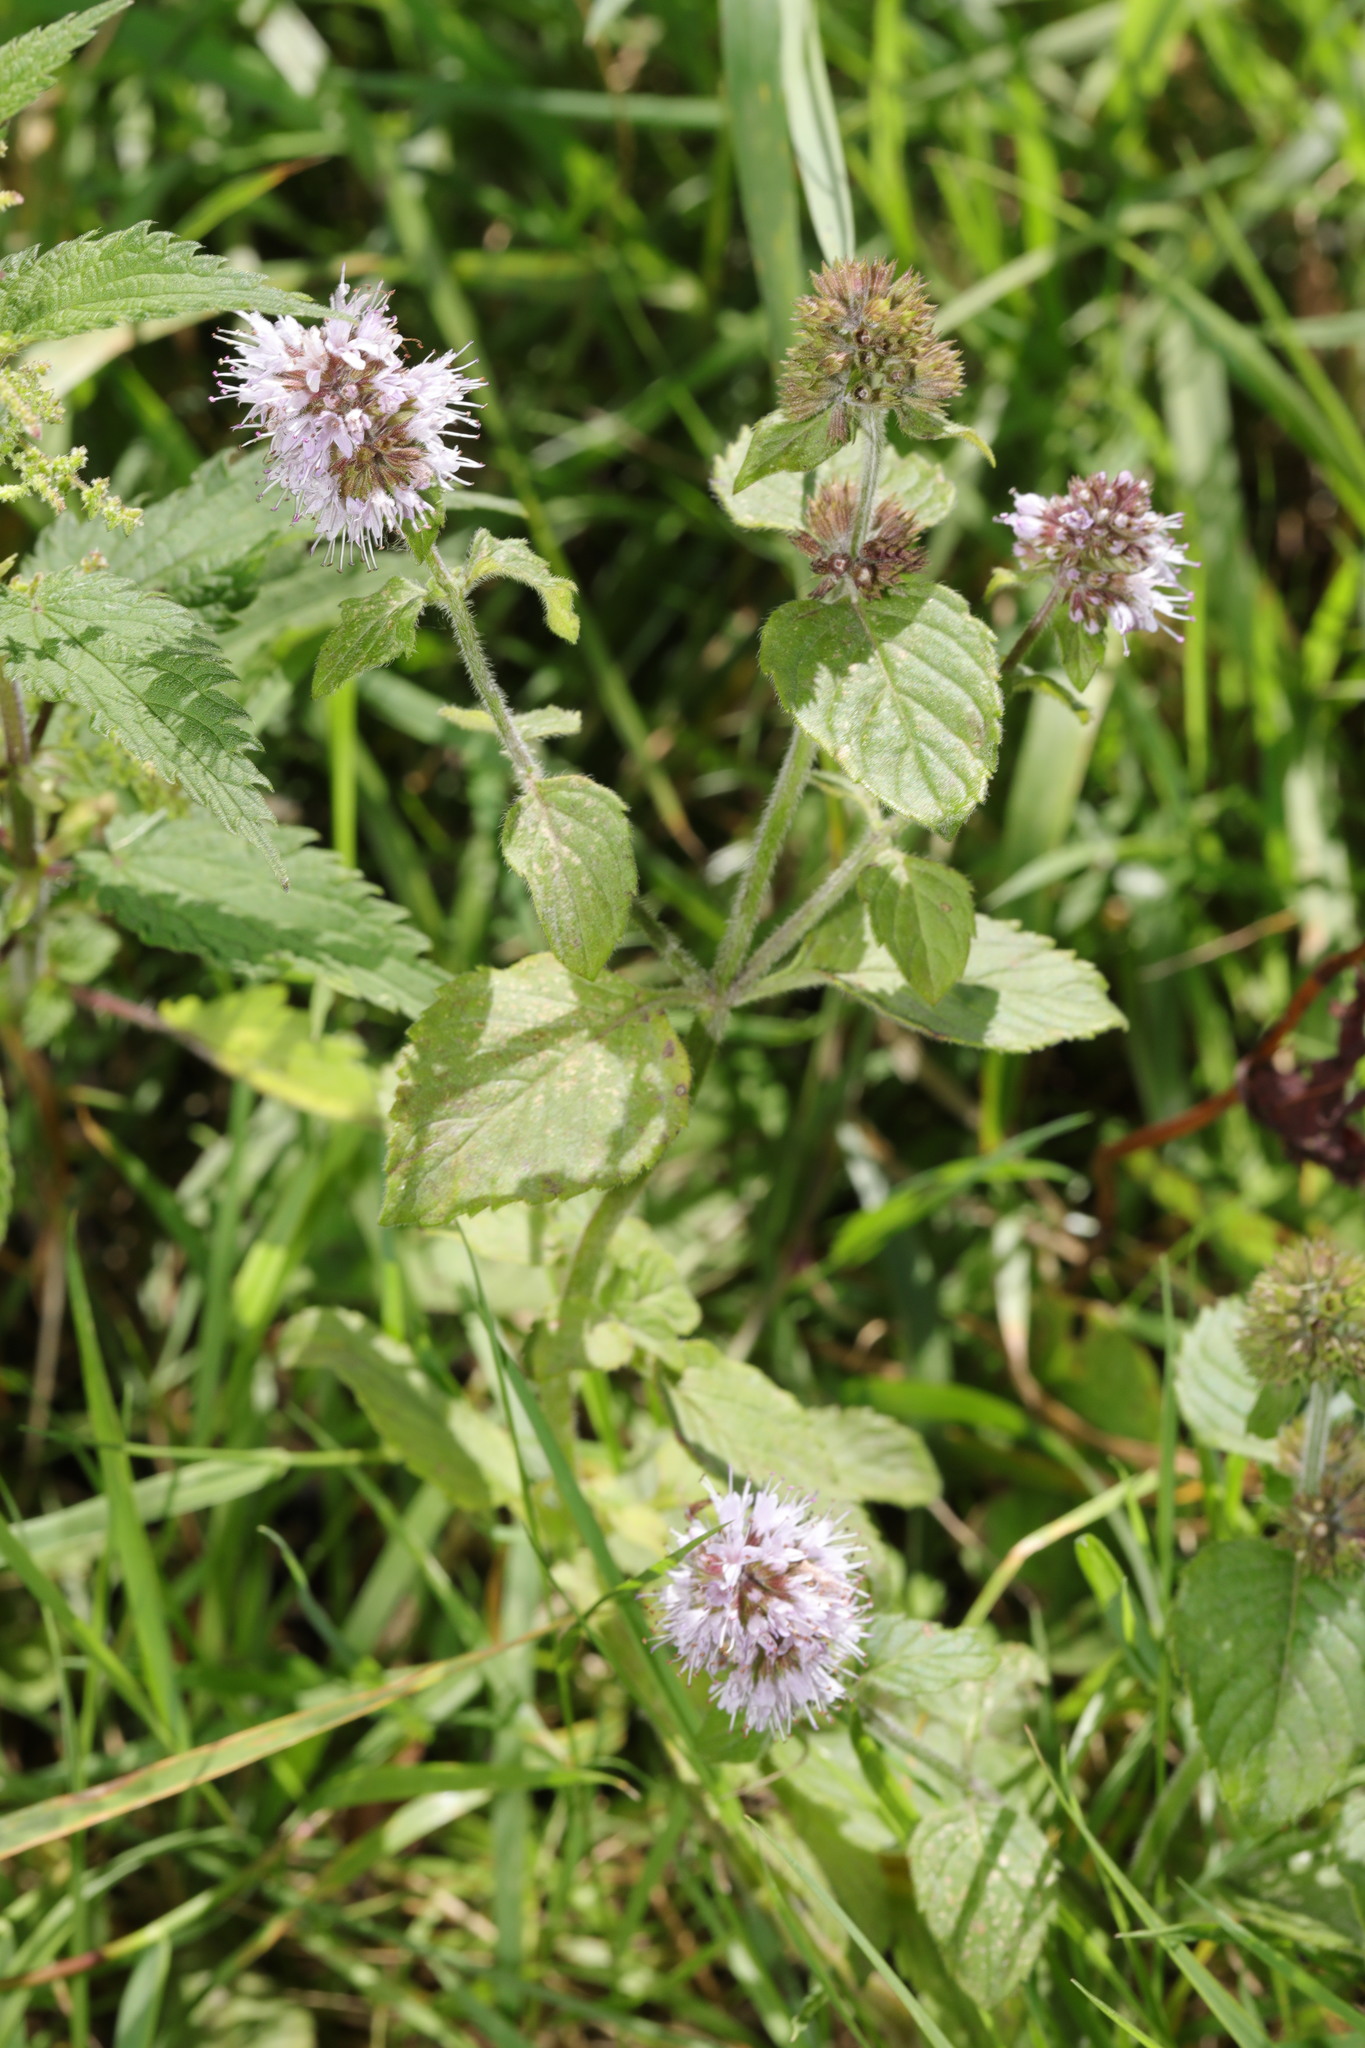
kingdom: Plantae
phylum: Tracheophyta
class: Magnoliopsida
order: Lamiales
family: Lamiaceae
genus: Mentha
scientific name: Mentha aquatica
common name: Water mint
